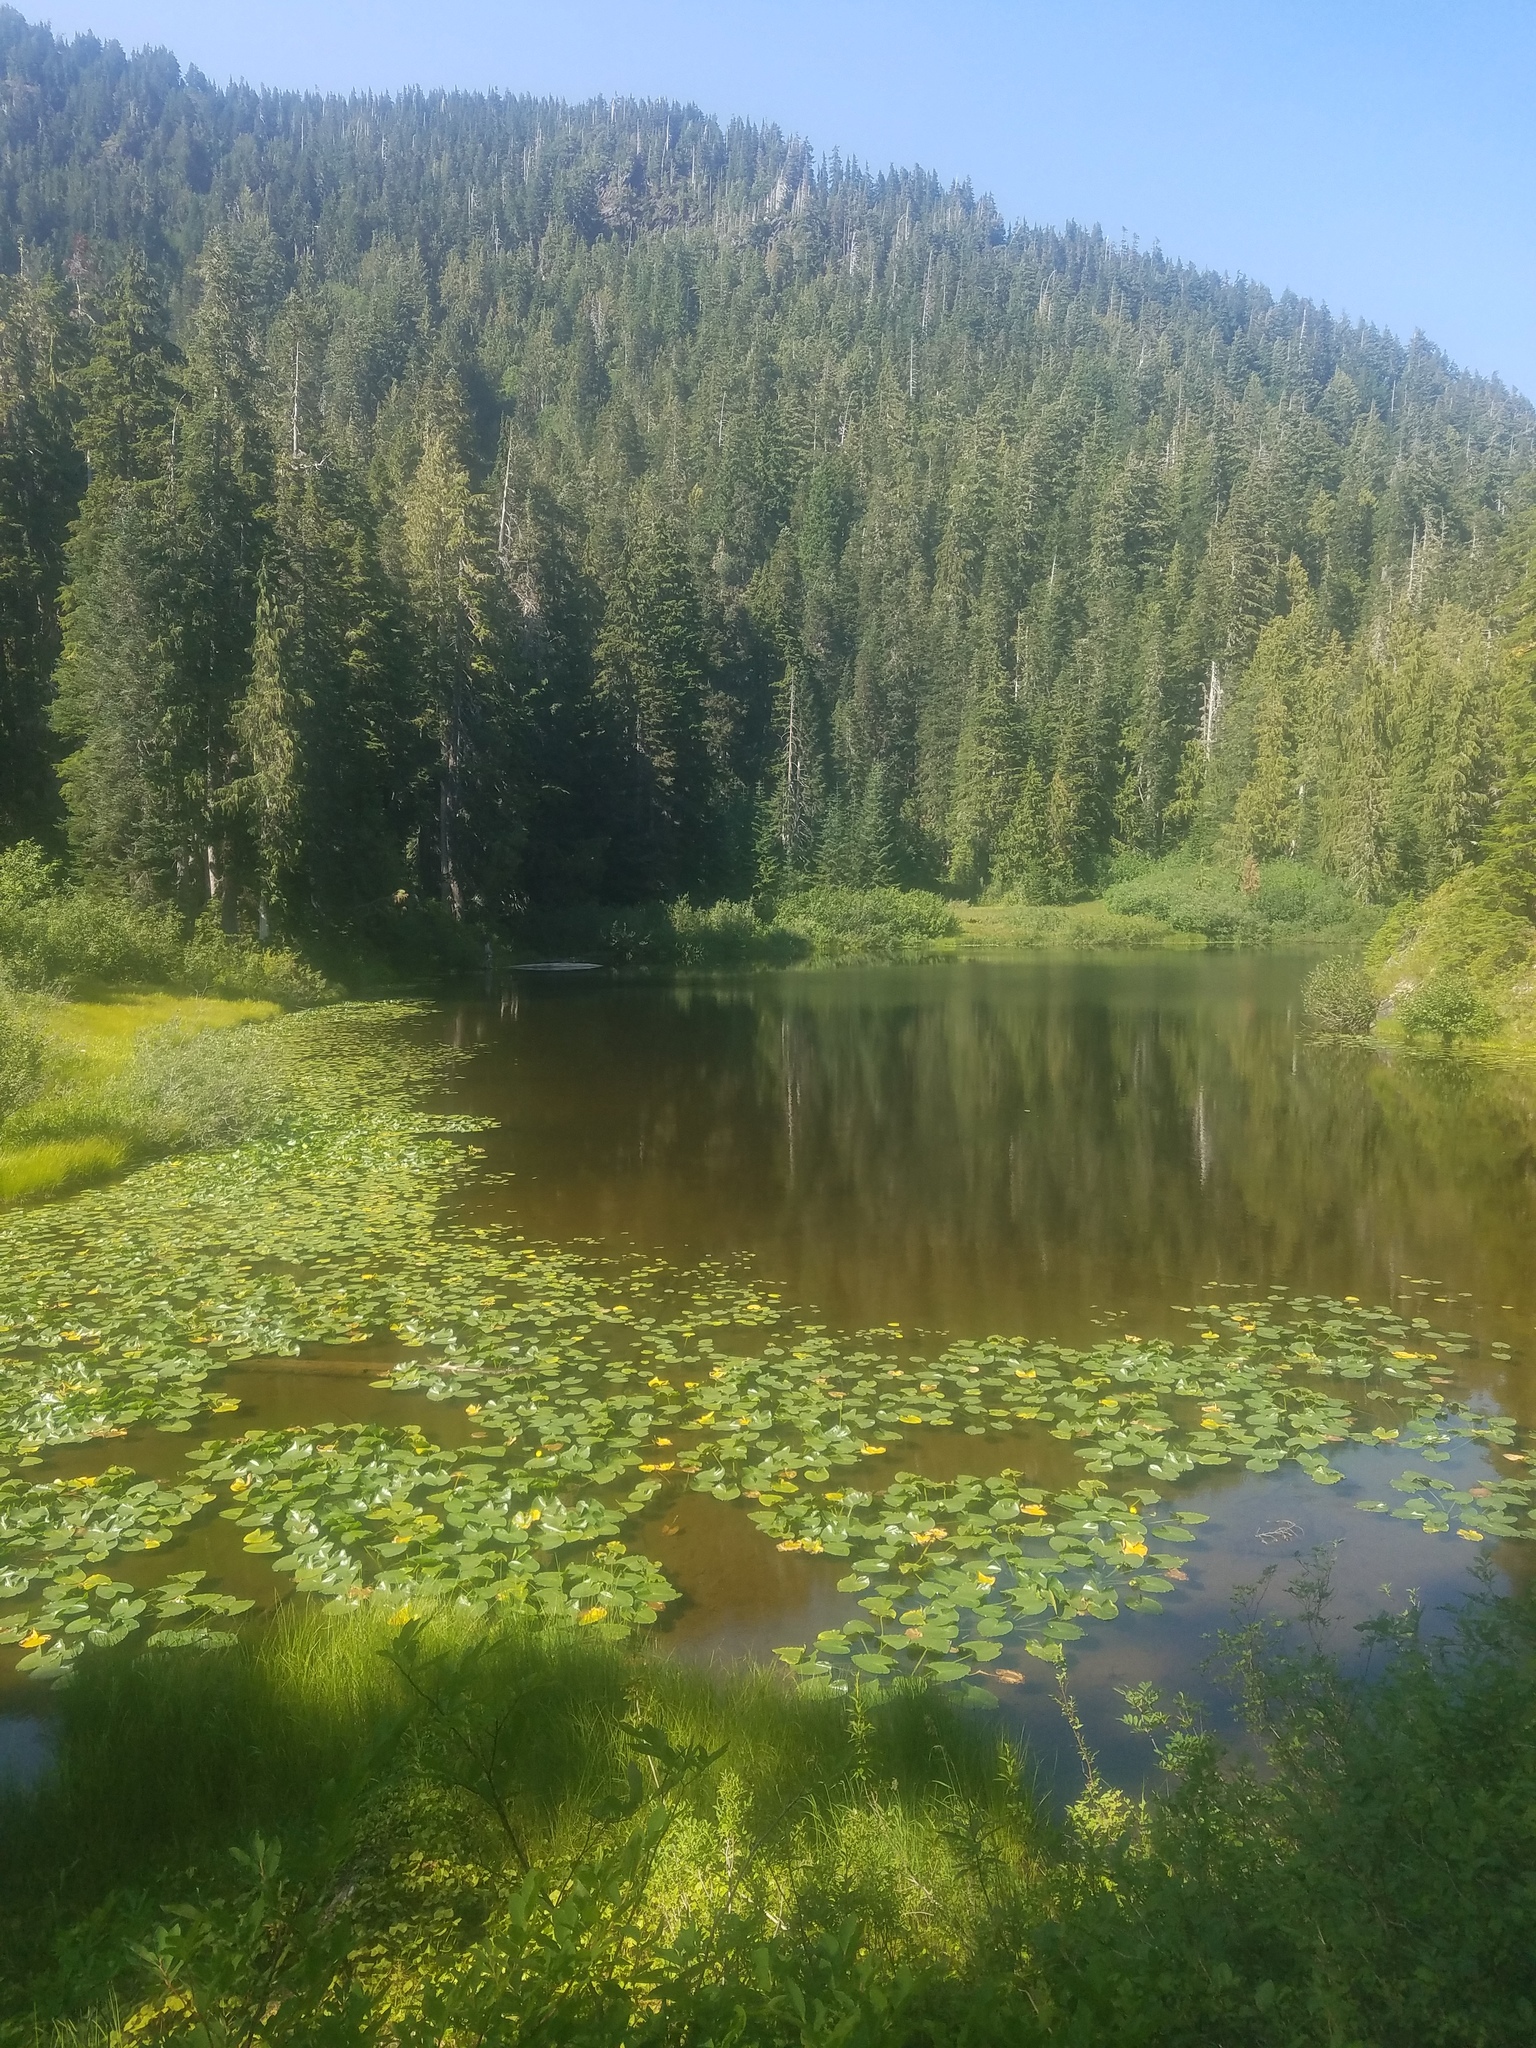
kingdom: Plantae
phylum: Tracheophyta
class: Magnoliopsida
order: Nymphaeales
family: Nymphaeaceae
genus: Nuphar
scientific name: Nuphar polysepala
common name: Rocky mountain cow-lily
